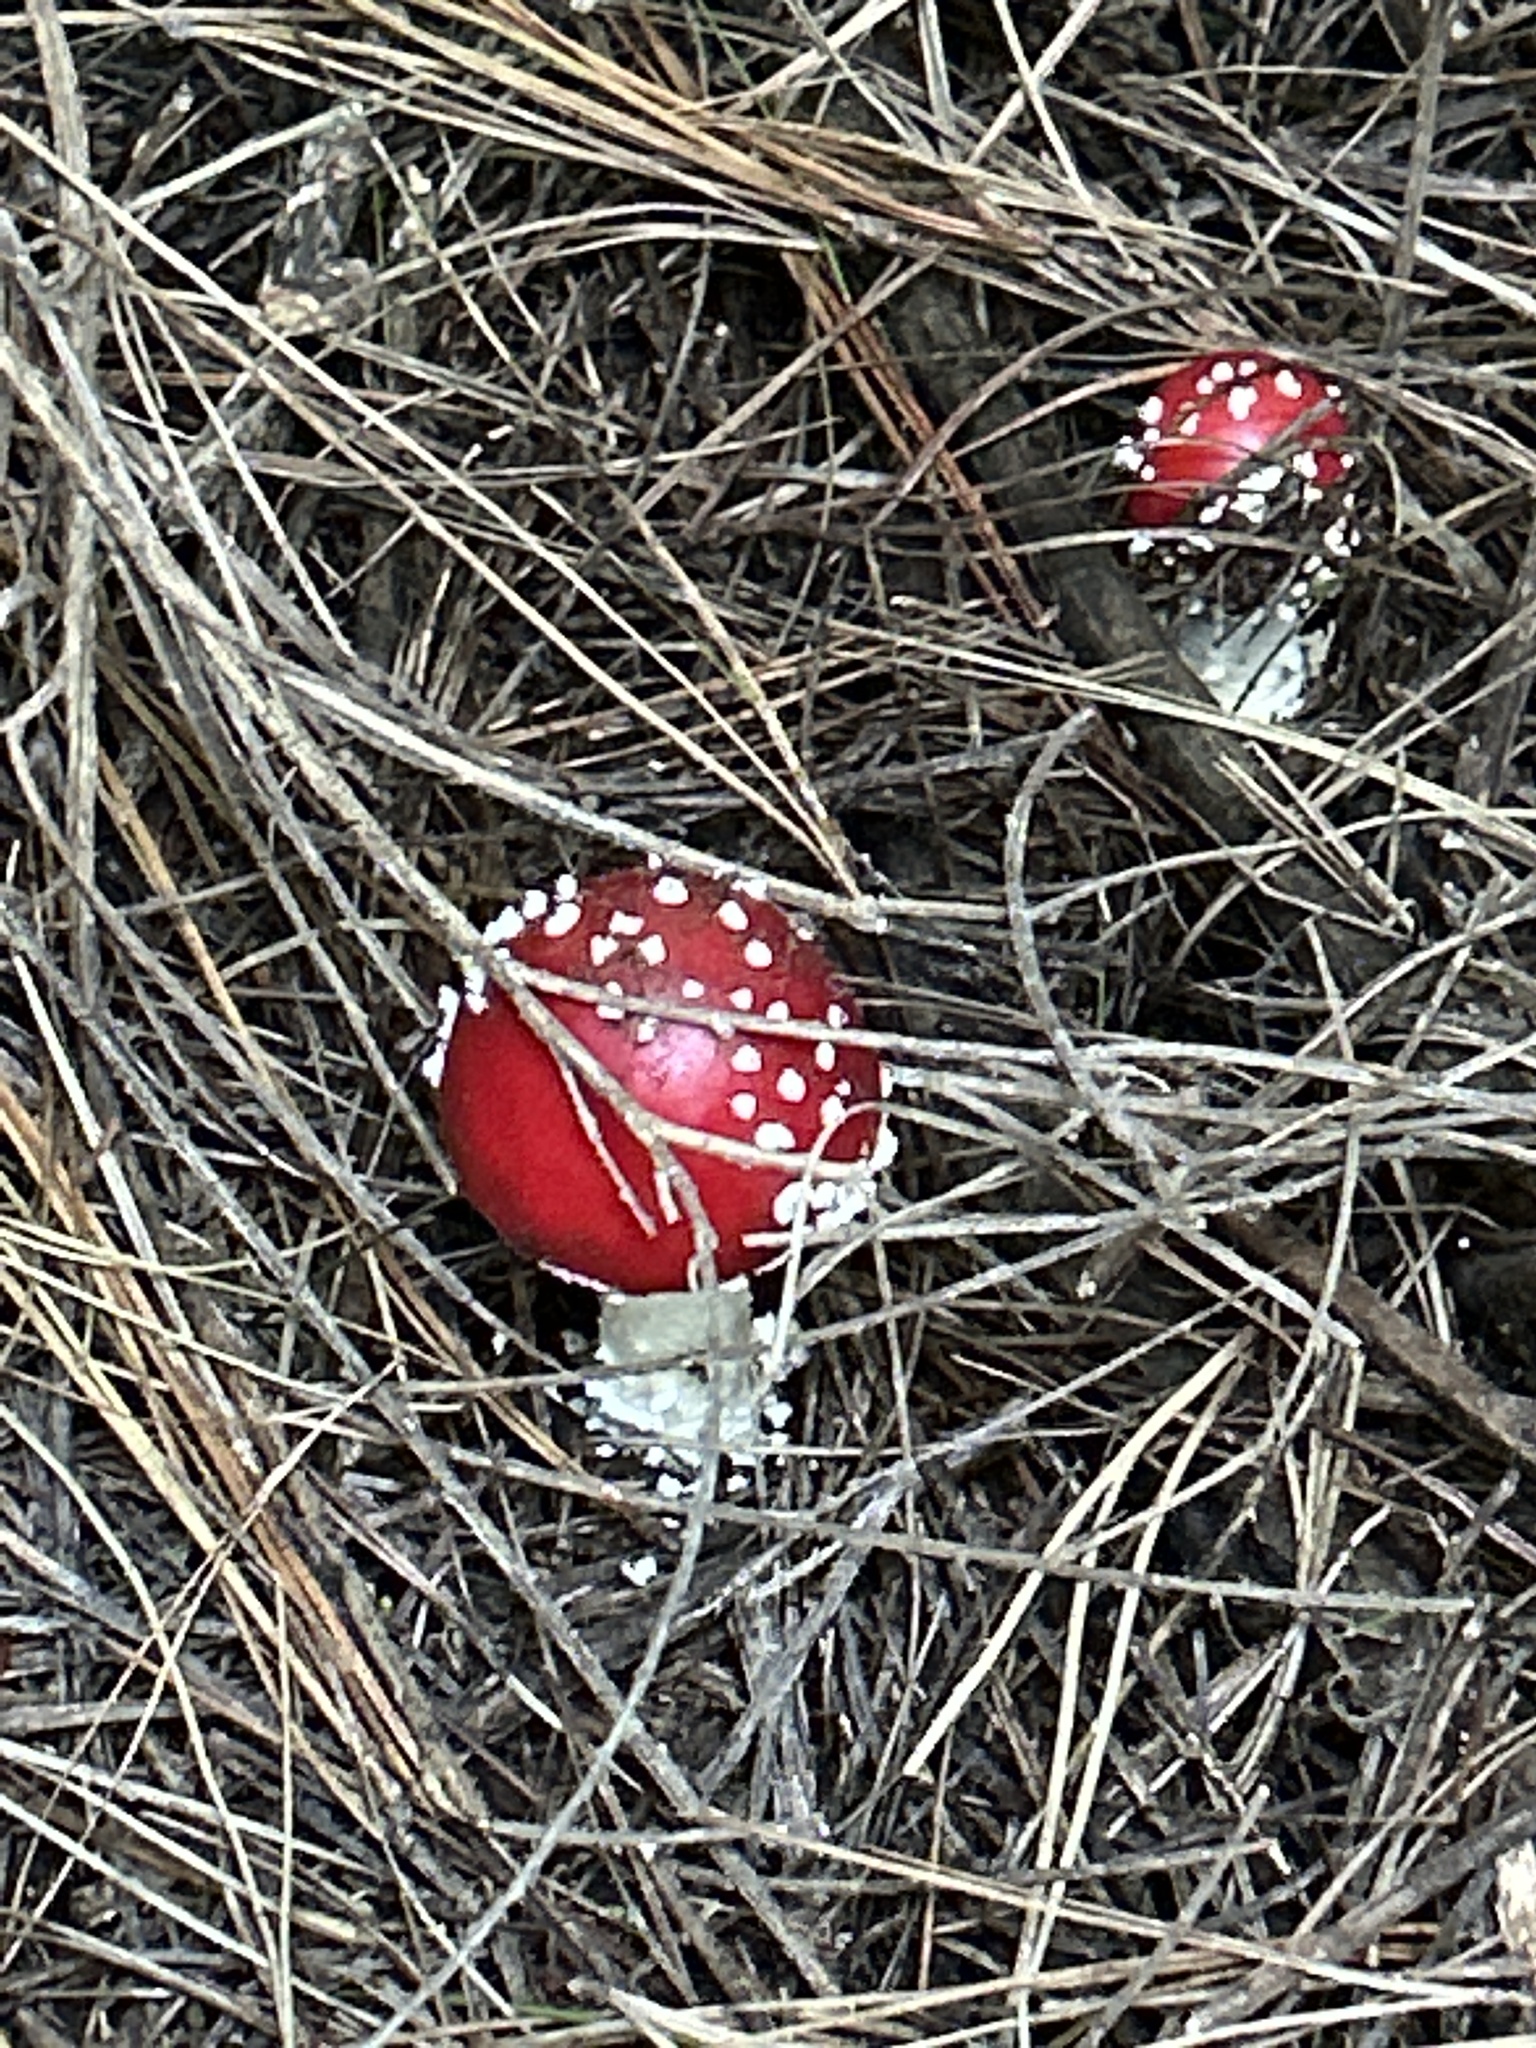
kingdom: Fungi
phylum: Basidiomycota
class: Agaricomycetes
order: Agaricales
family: Amanitaceae
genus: Amanita
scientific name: Amanita muscaria
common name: Fly agaric
